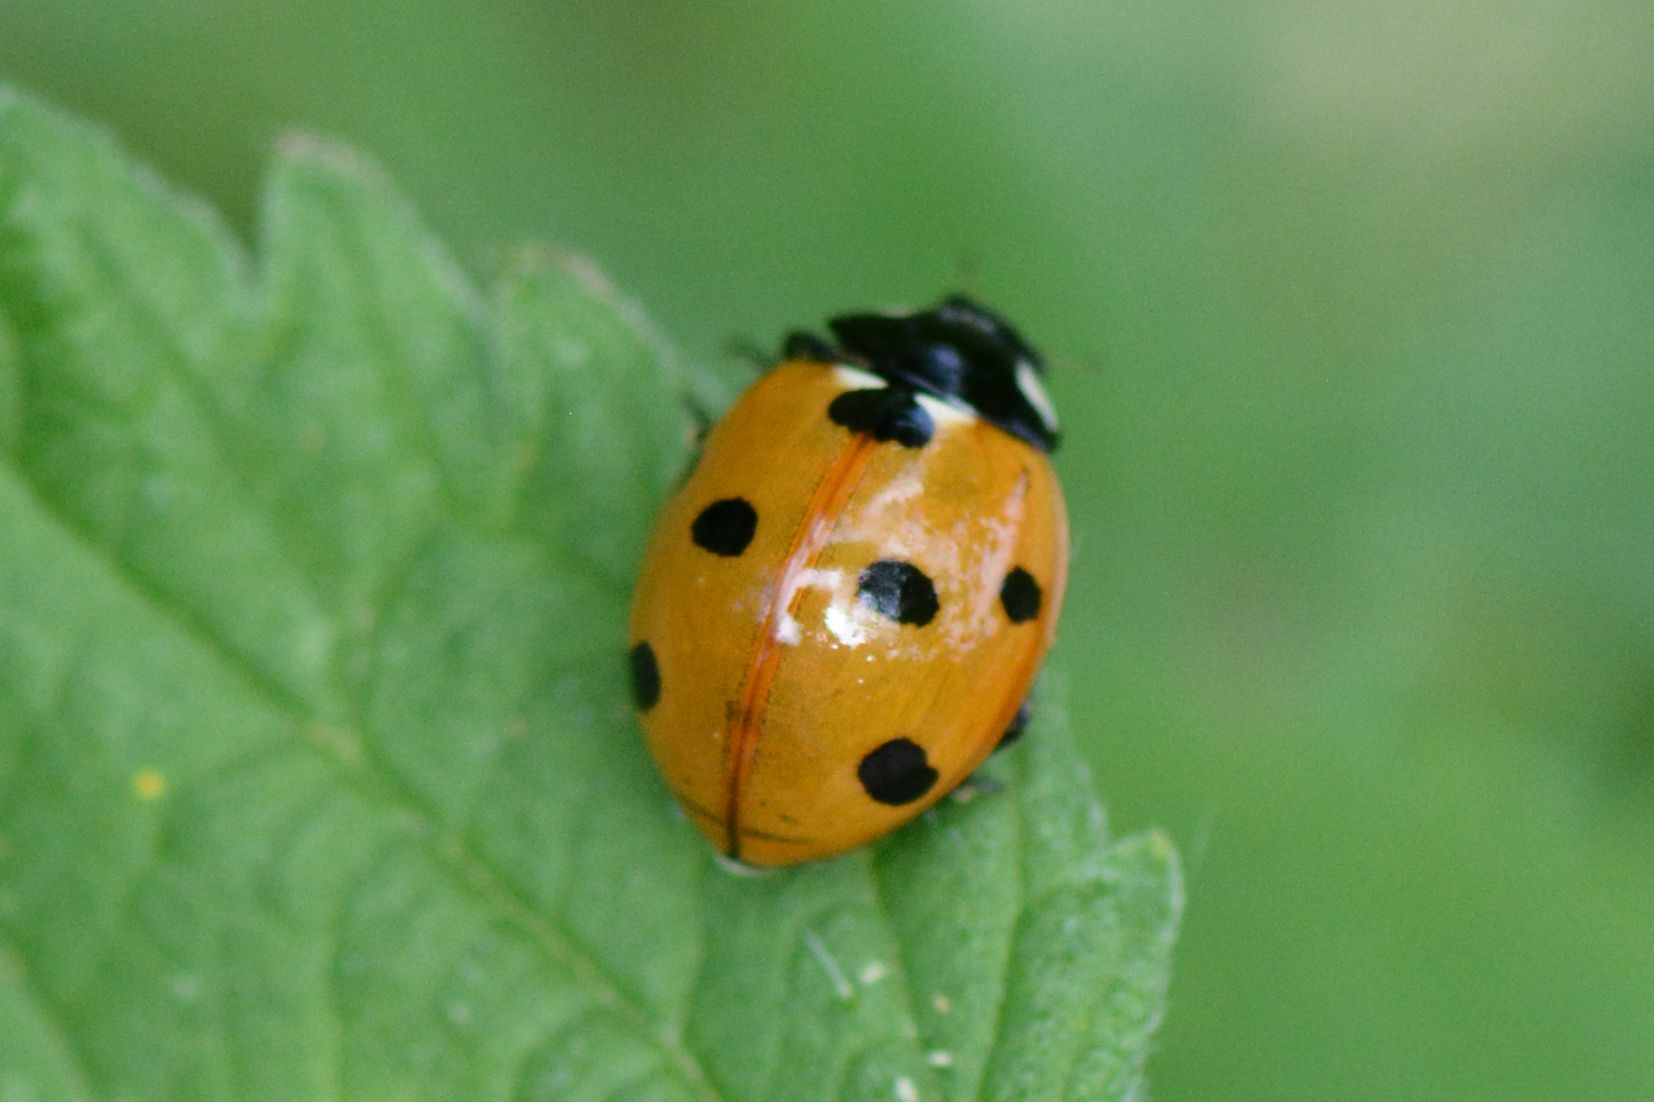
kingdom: Animalia
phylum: Arthropoda
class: Insecta
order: Coleoptera
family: Coccinellidae
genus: Coccinella
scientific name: Coccinella septempunctata
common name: Sevenspotted lady beetle
